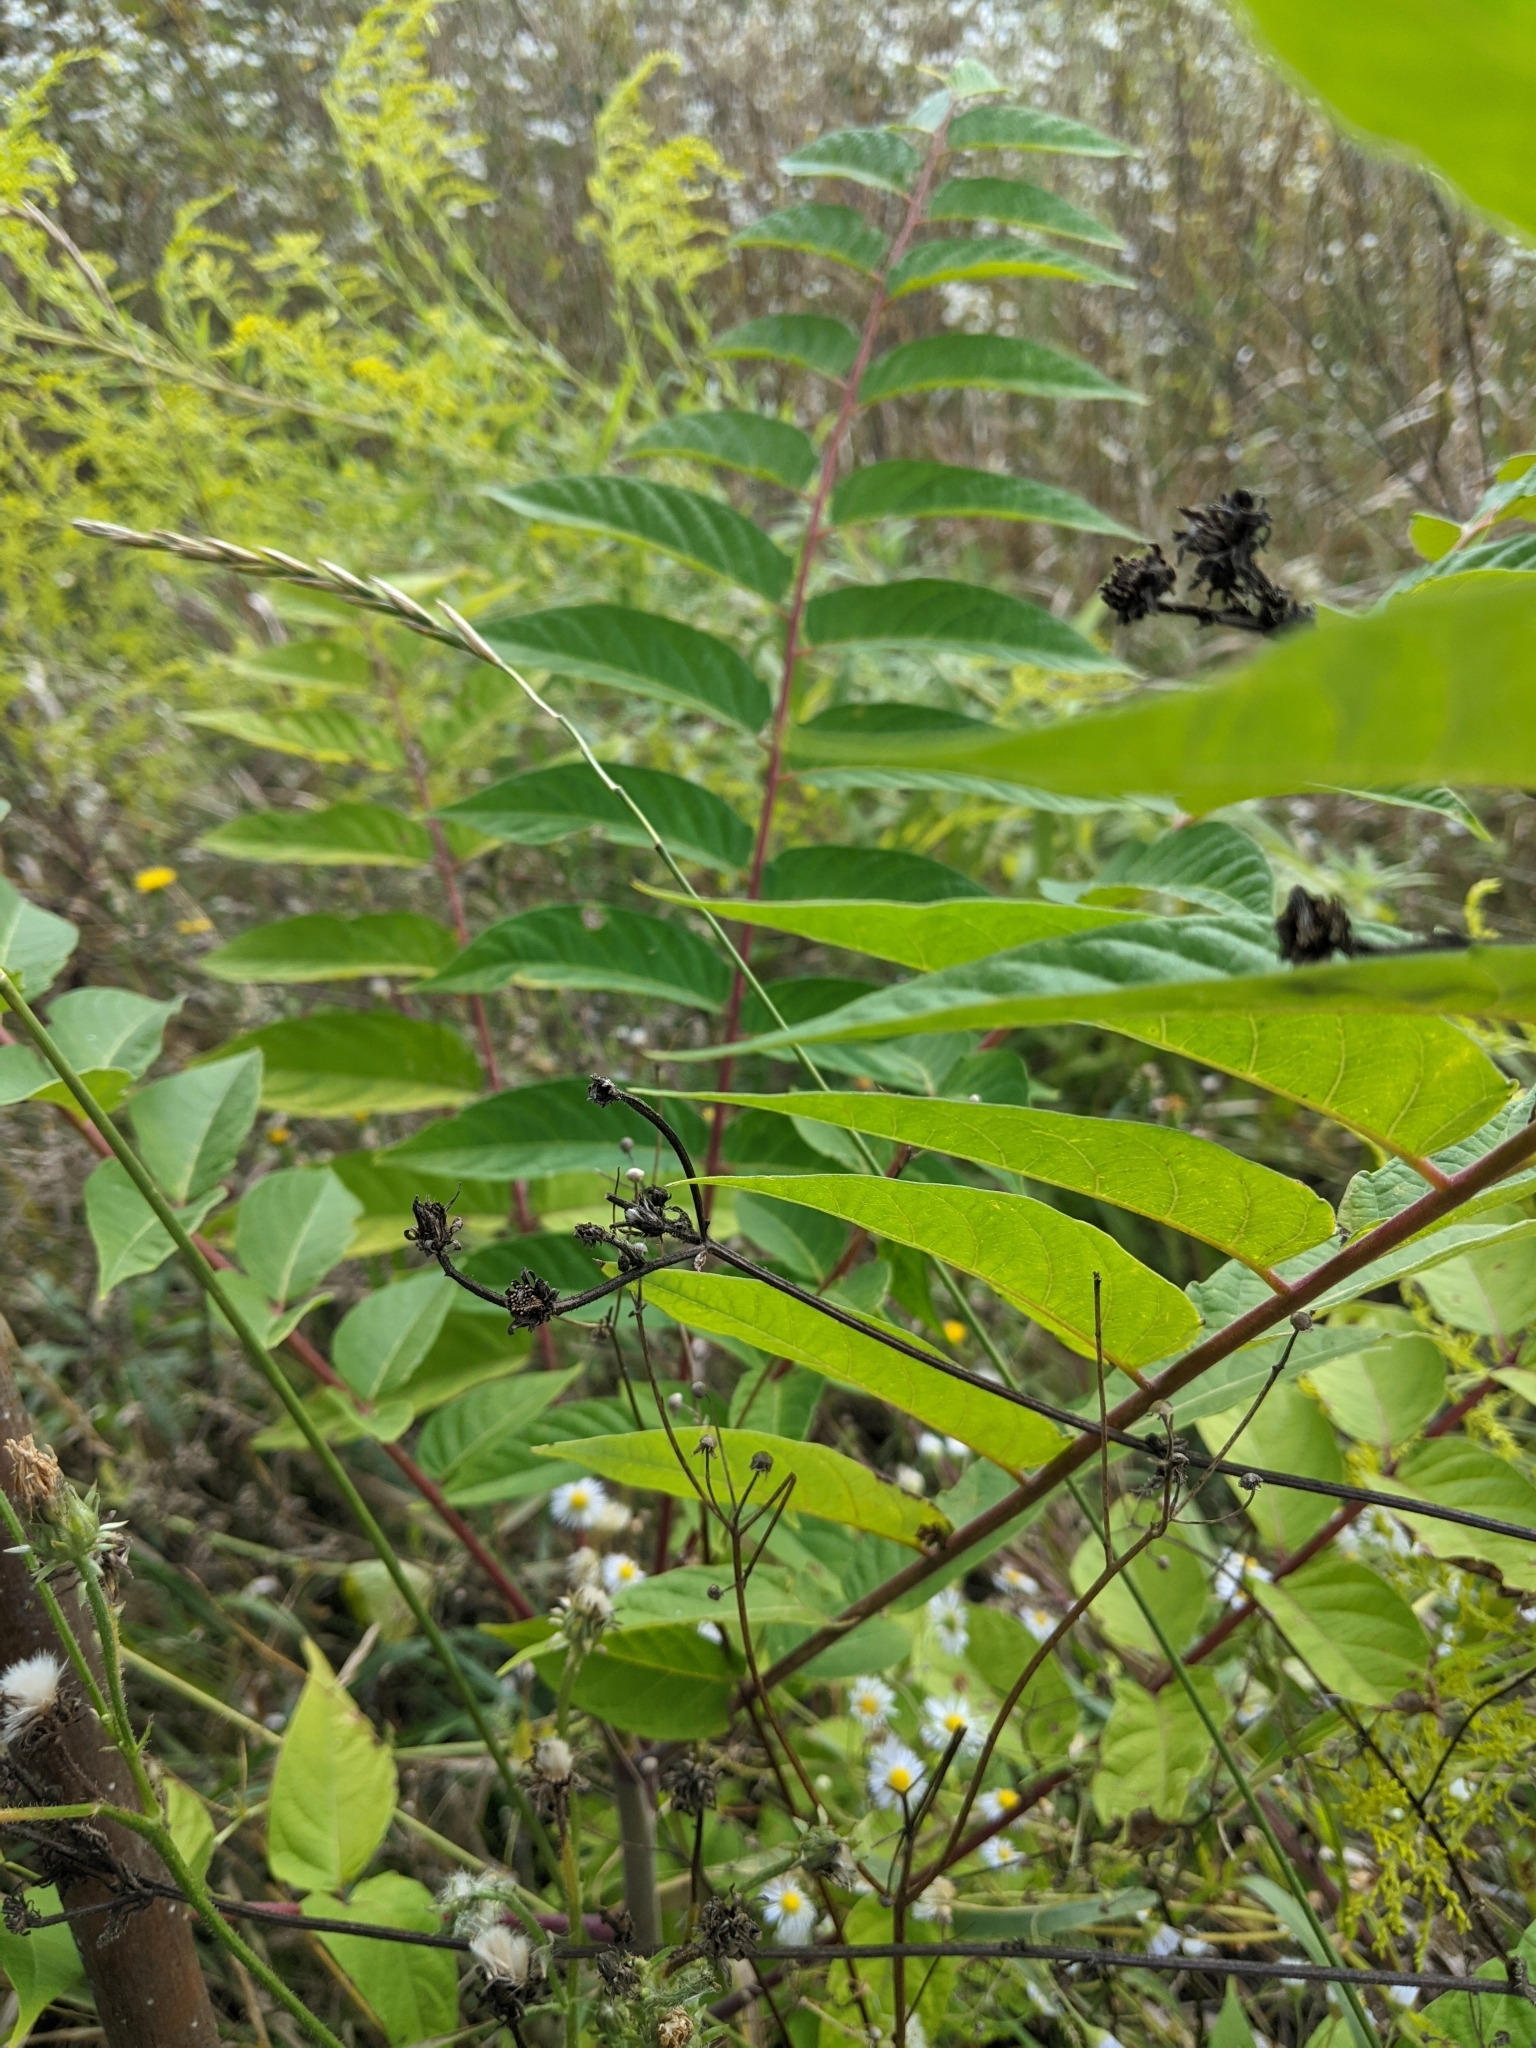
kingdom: Plantae
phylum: Tracheophyta
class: Magnoliopsida
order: Sapindales
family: Simaroubaceae
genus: Ailanthus
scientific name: Ailanthus altissima
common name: Tree-of-heaven
